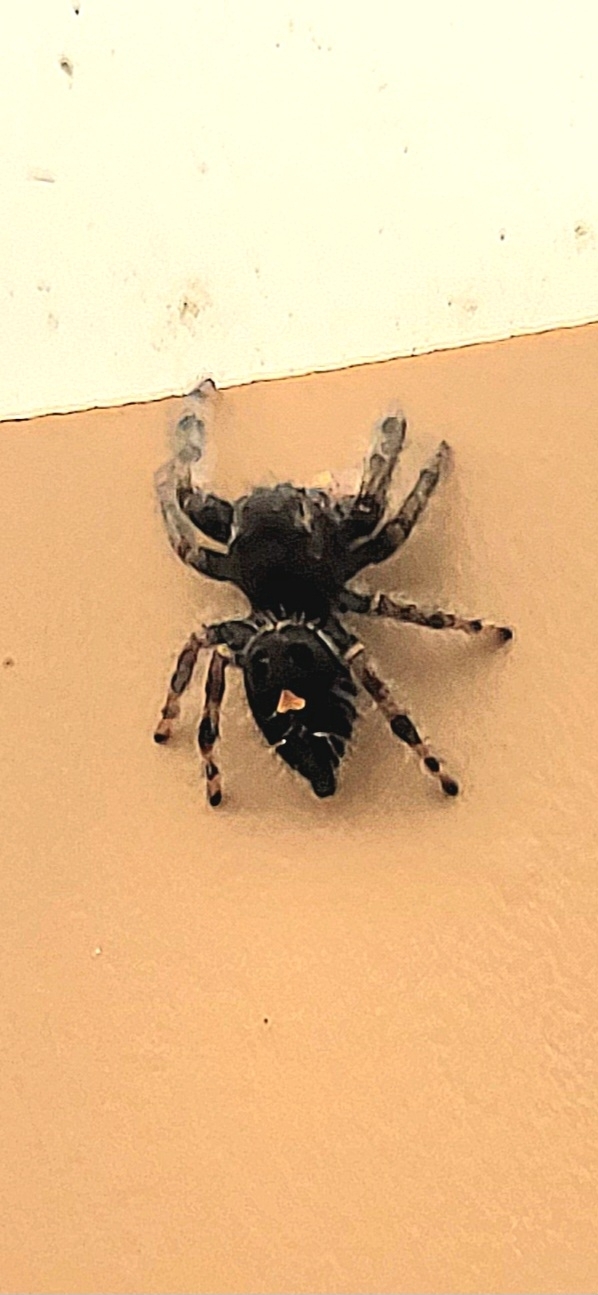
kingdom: Animalia
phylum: Arthropoda
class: Arachnida
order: Araneae
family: Salticidae
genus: Phidippus
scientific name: Phidippus audax
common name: Bold jumper
